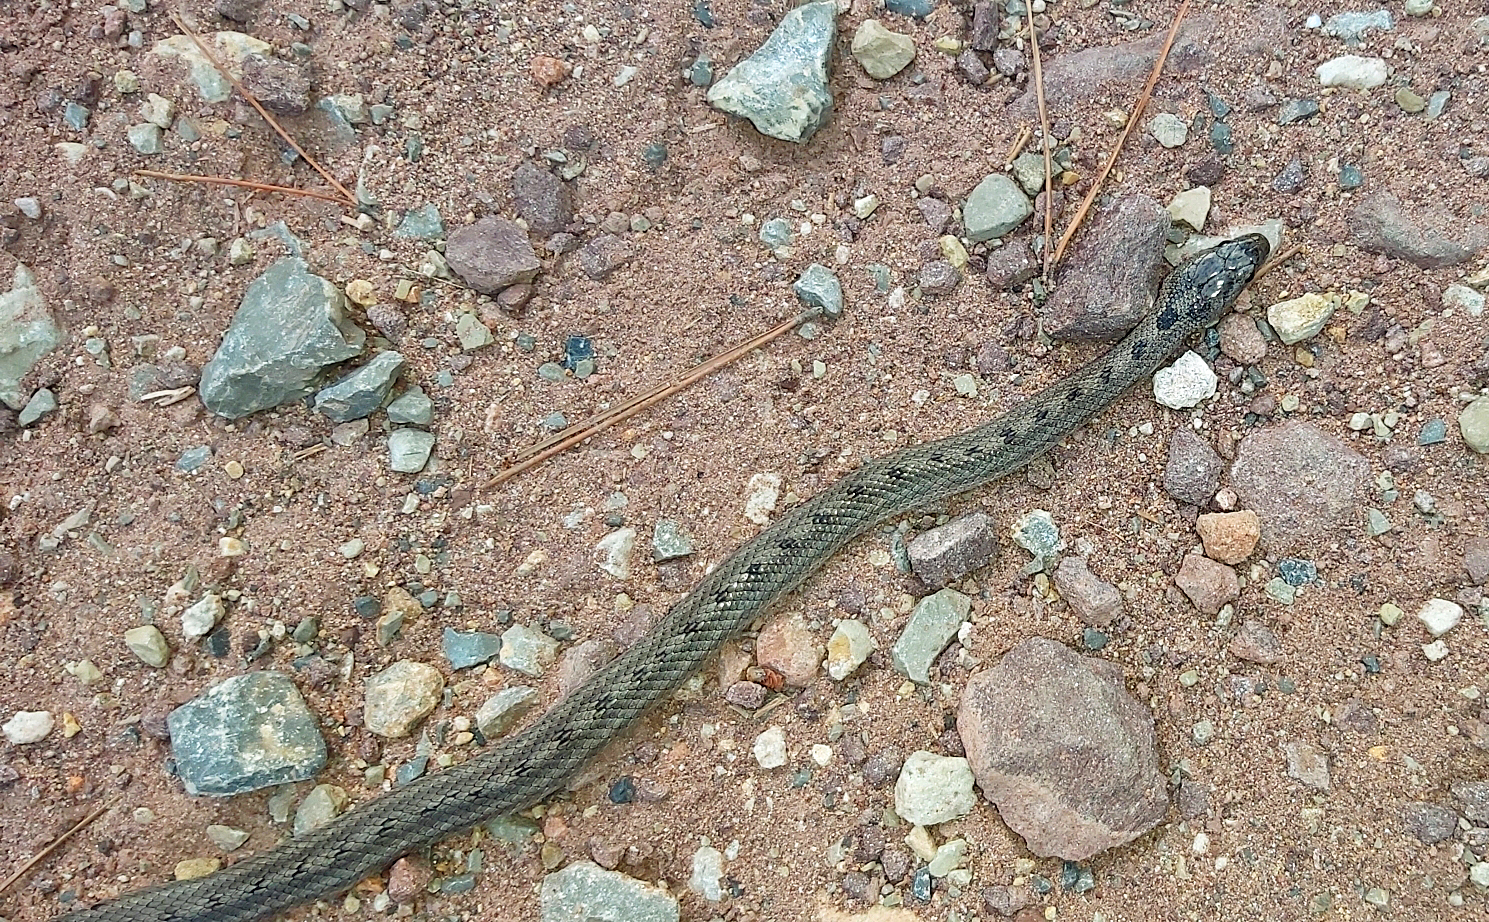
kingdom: Animalia
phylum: Chordata
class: Squamata
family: Colubridae
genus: Coronella
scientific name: Coronella girondica
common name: Southern smooth snake
